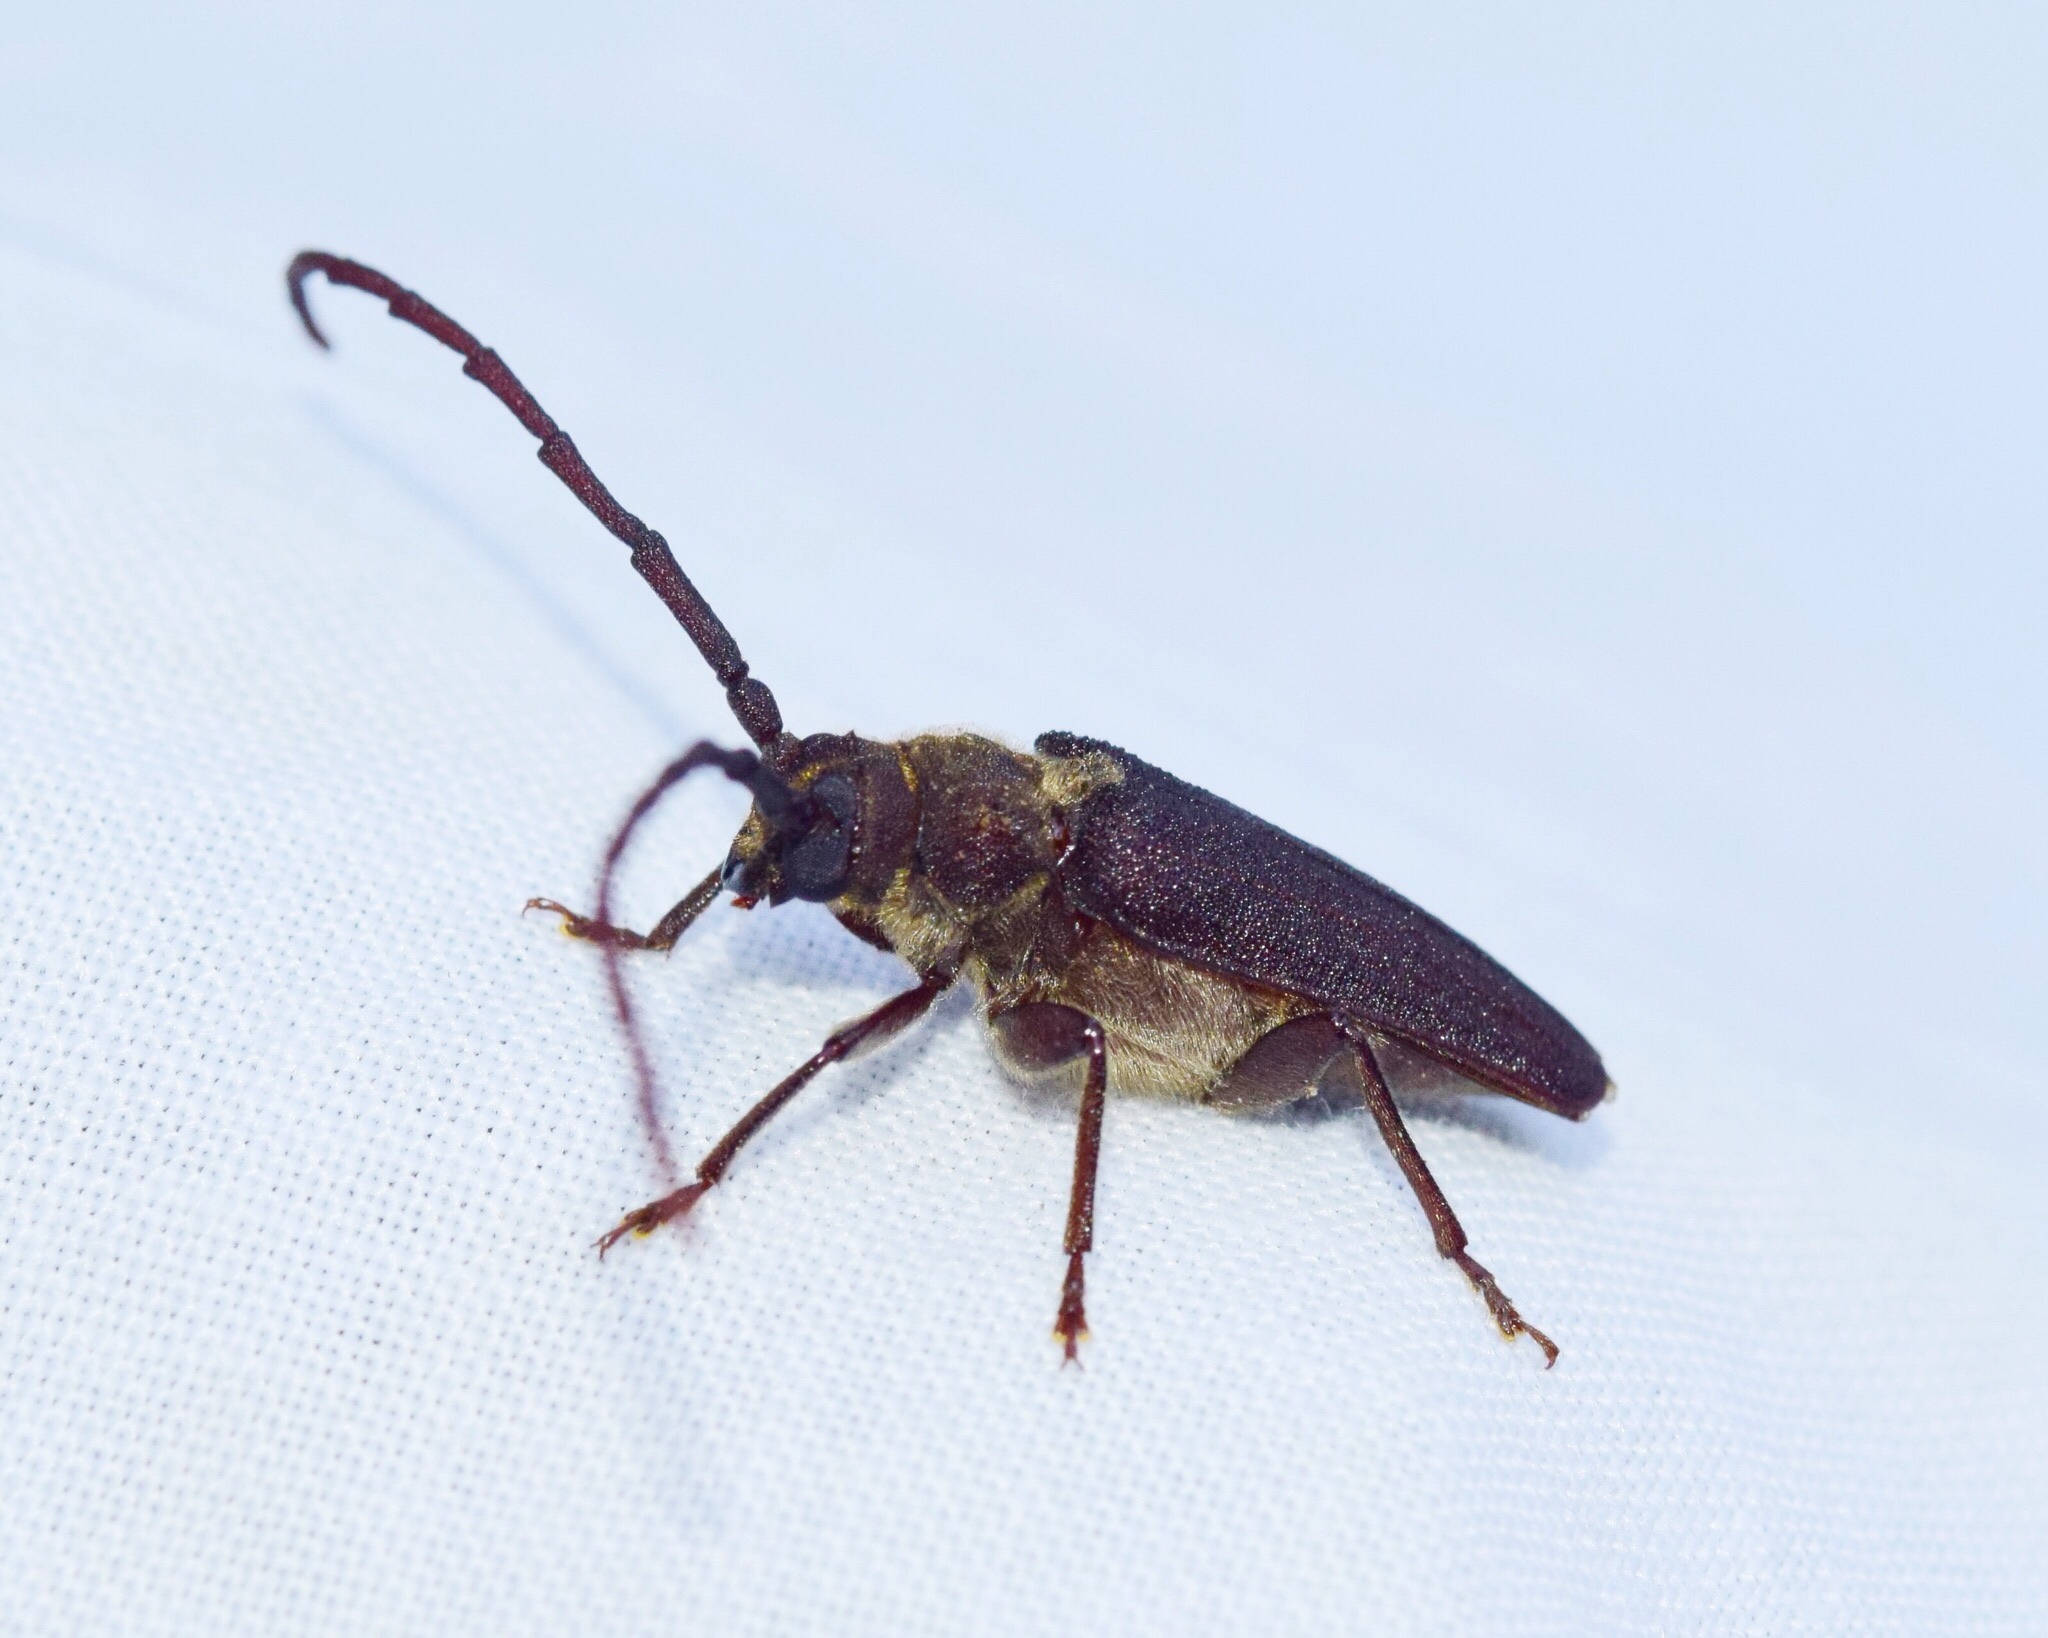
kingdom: Animalia
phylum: Arthropoda
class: Insecta
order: Coleoptera
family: Cerambycidae
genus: Delocheilus
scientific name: Delocheilus obscurus
